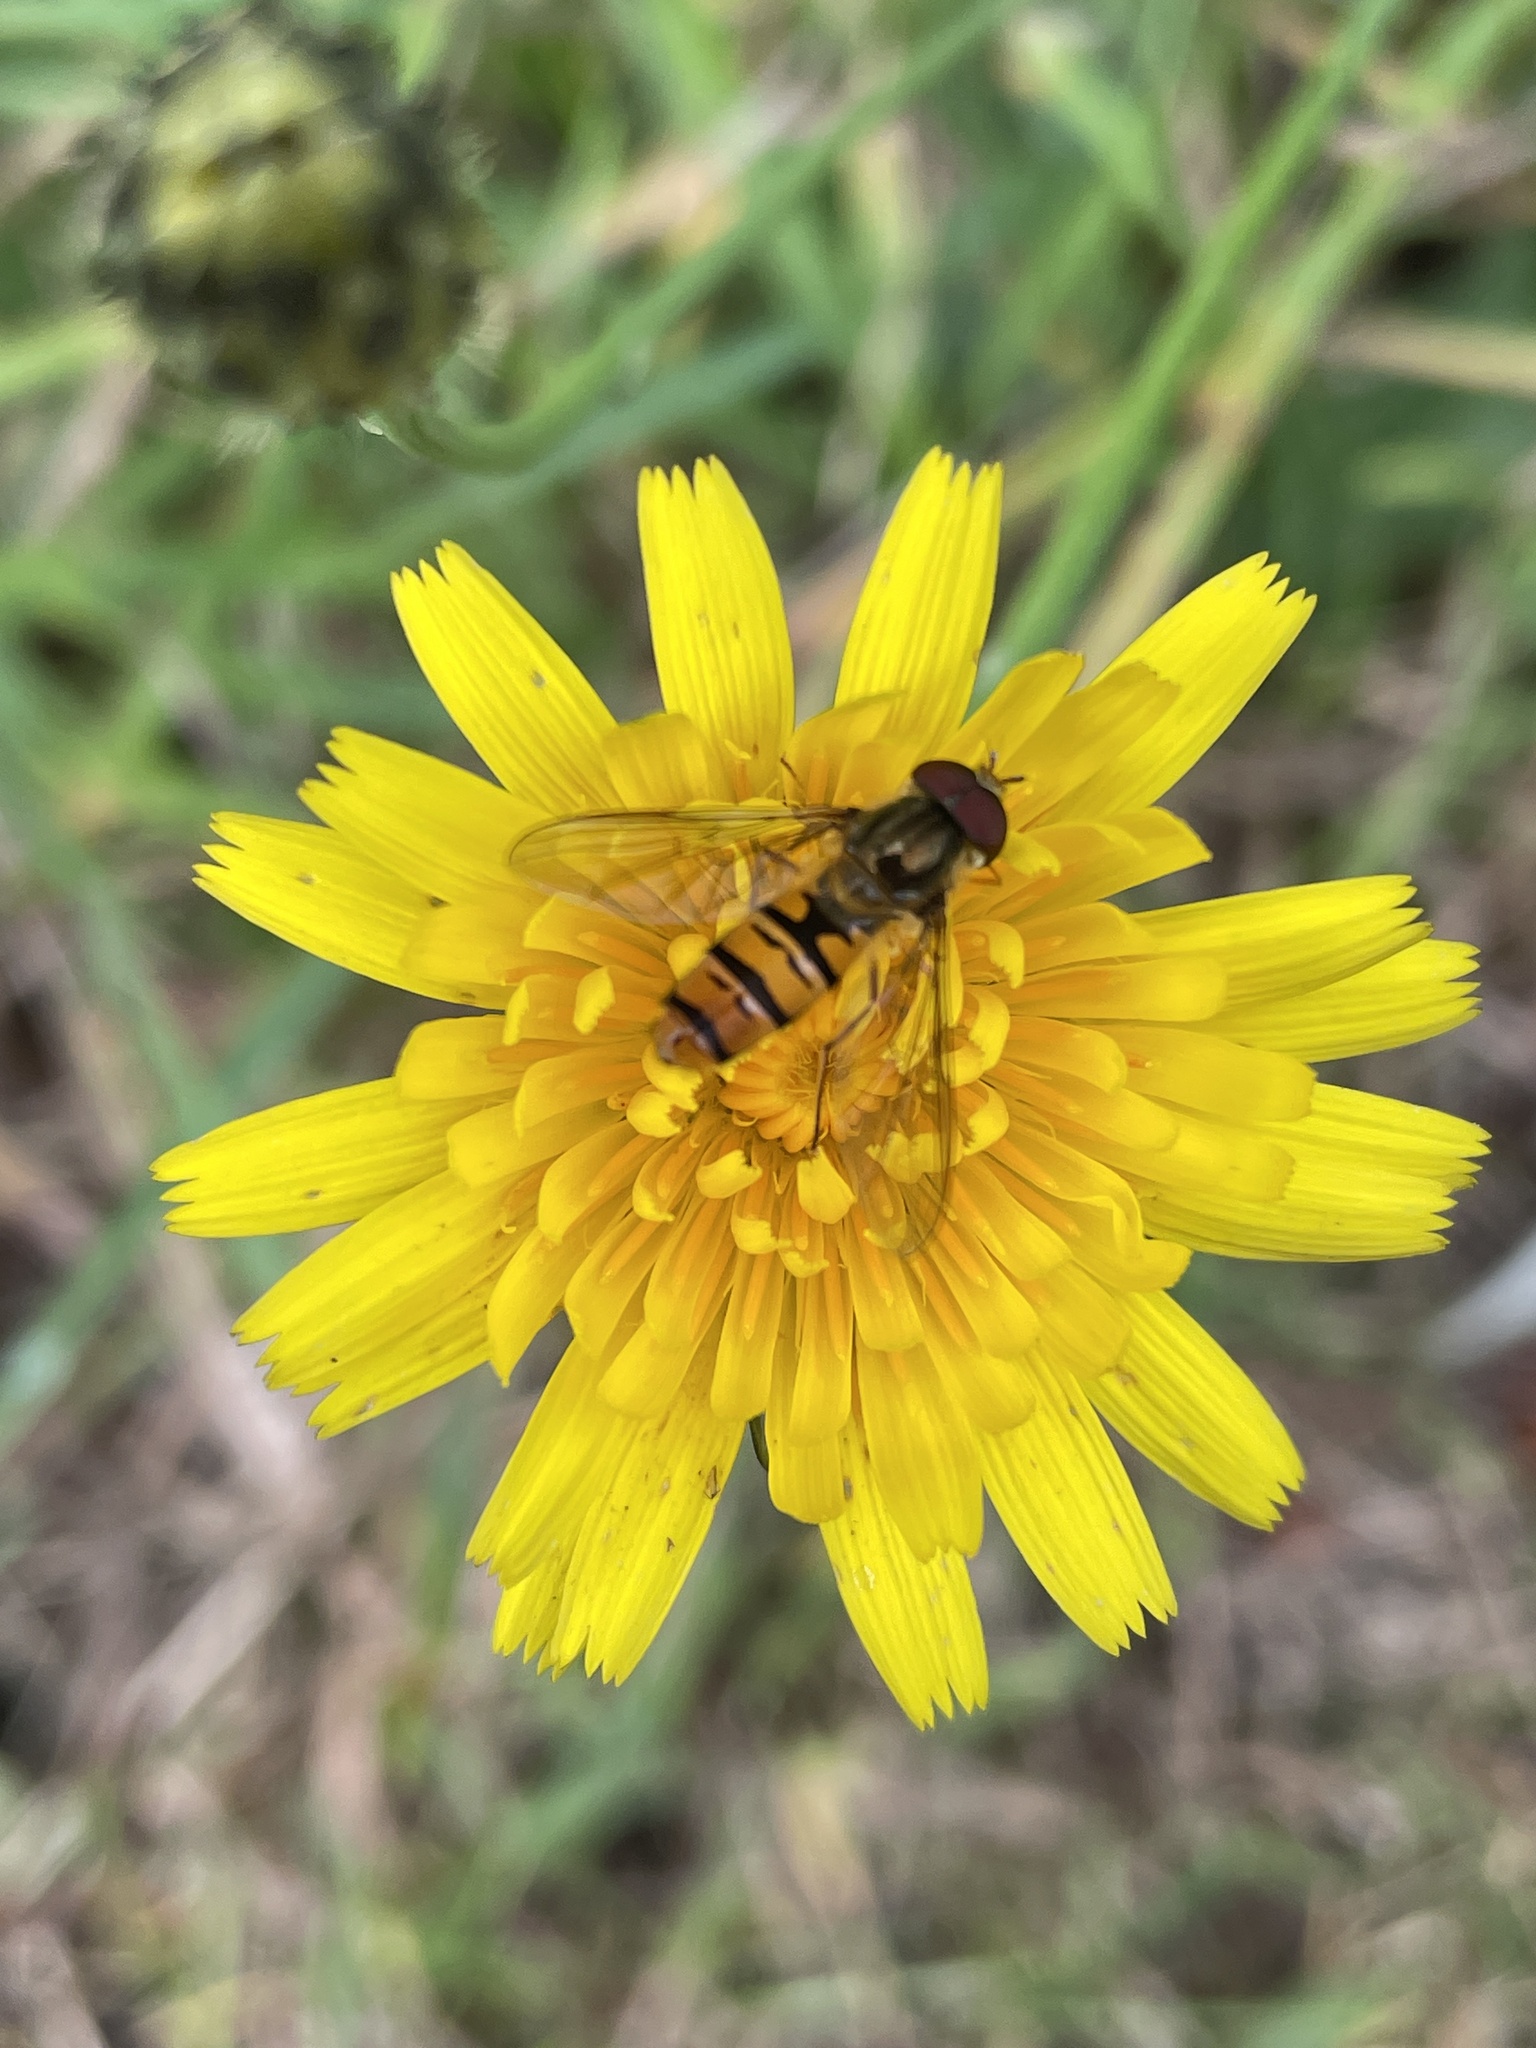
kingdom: Animalia
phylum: Arthropoda
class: Insecta
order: Diptera
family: Syrphidae
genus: Episyrphus
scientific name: Episyrphus balteatus
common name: Marmalade hoverfly
